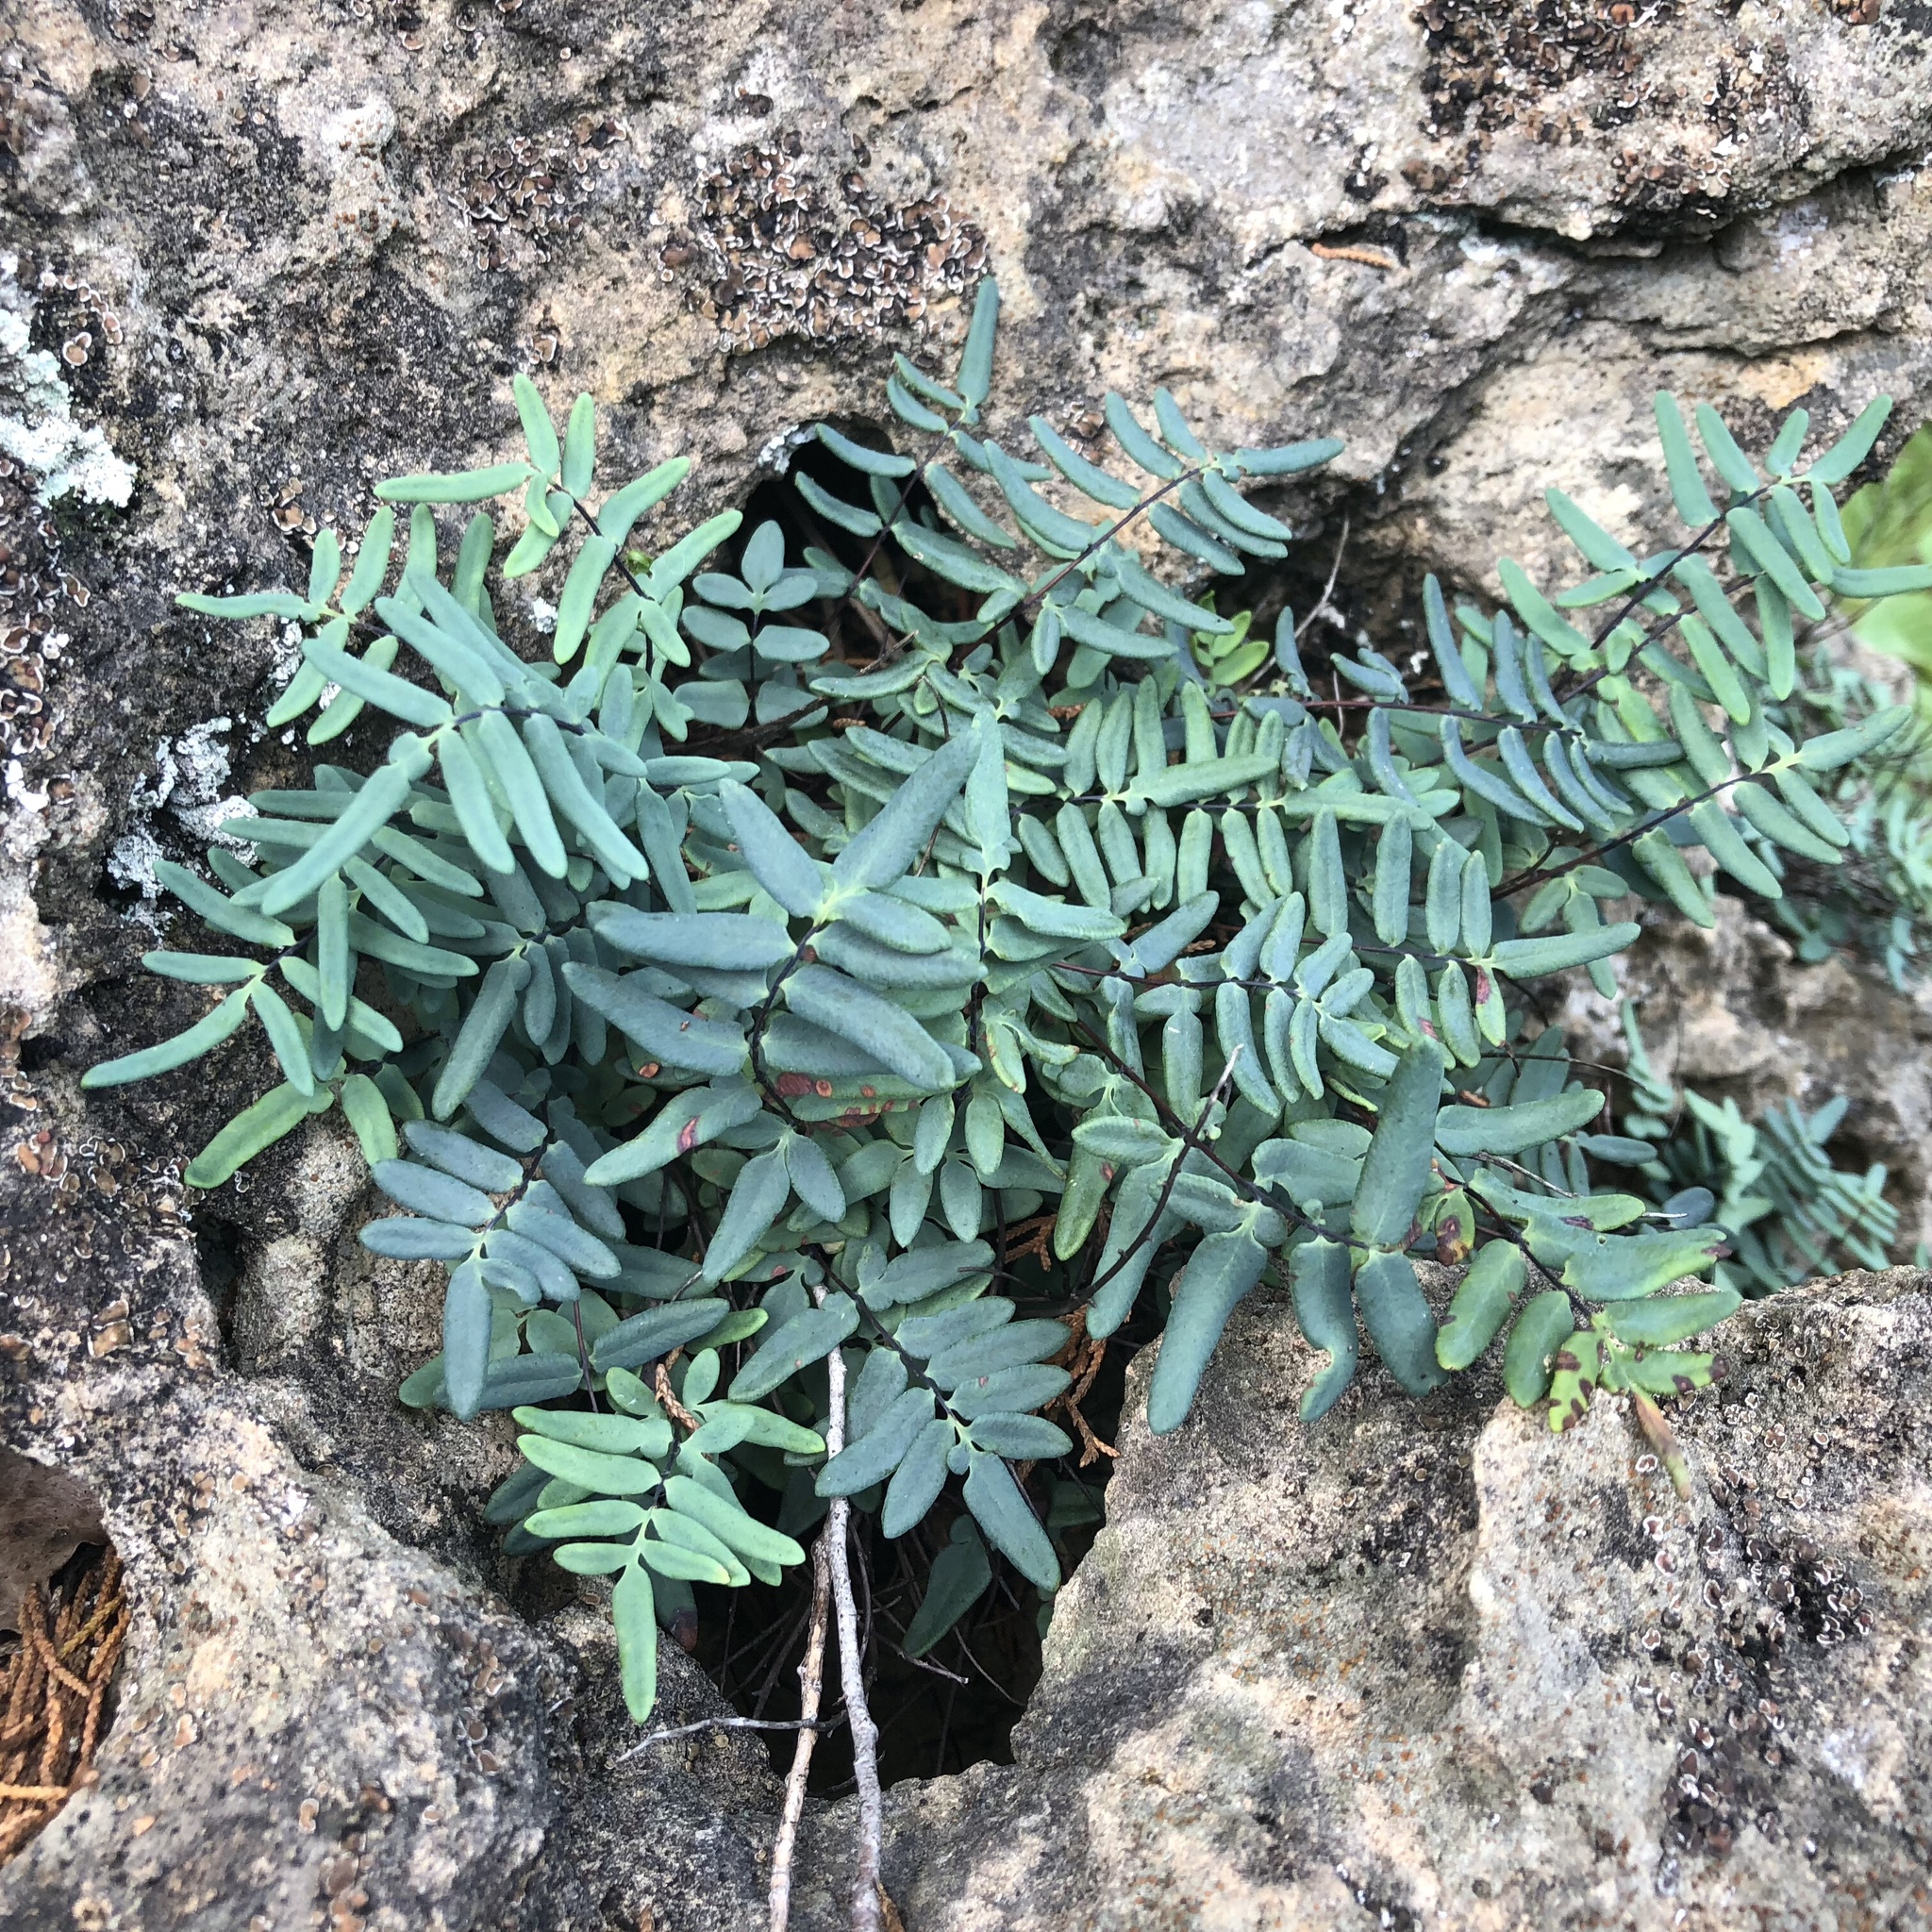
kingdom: Plantae
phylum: Tracheophyta
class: Polypodiopsida
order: Polypodiales
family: Pteridaceae
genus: Pellaea
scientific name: Pellaea glabella
